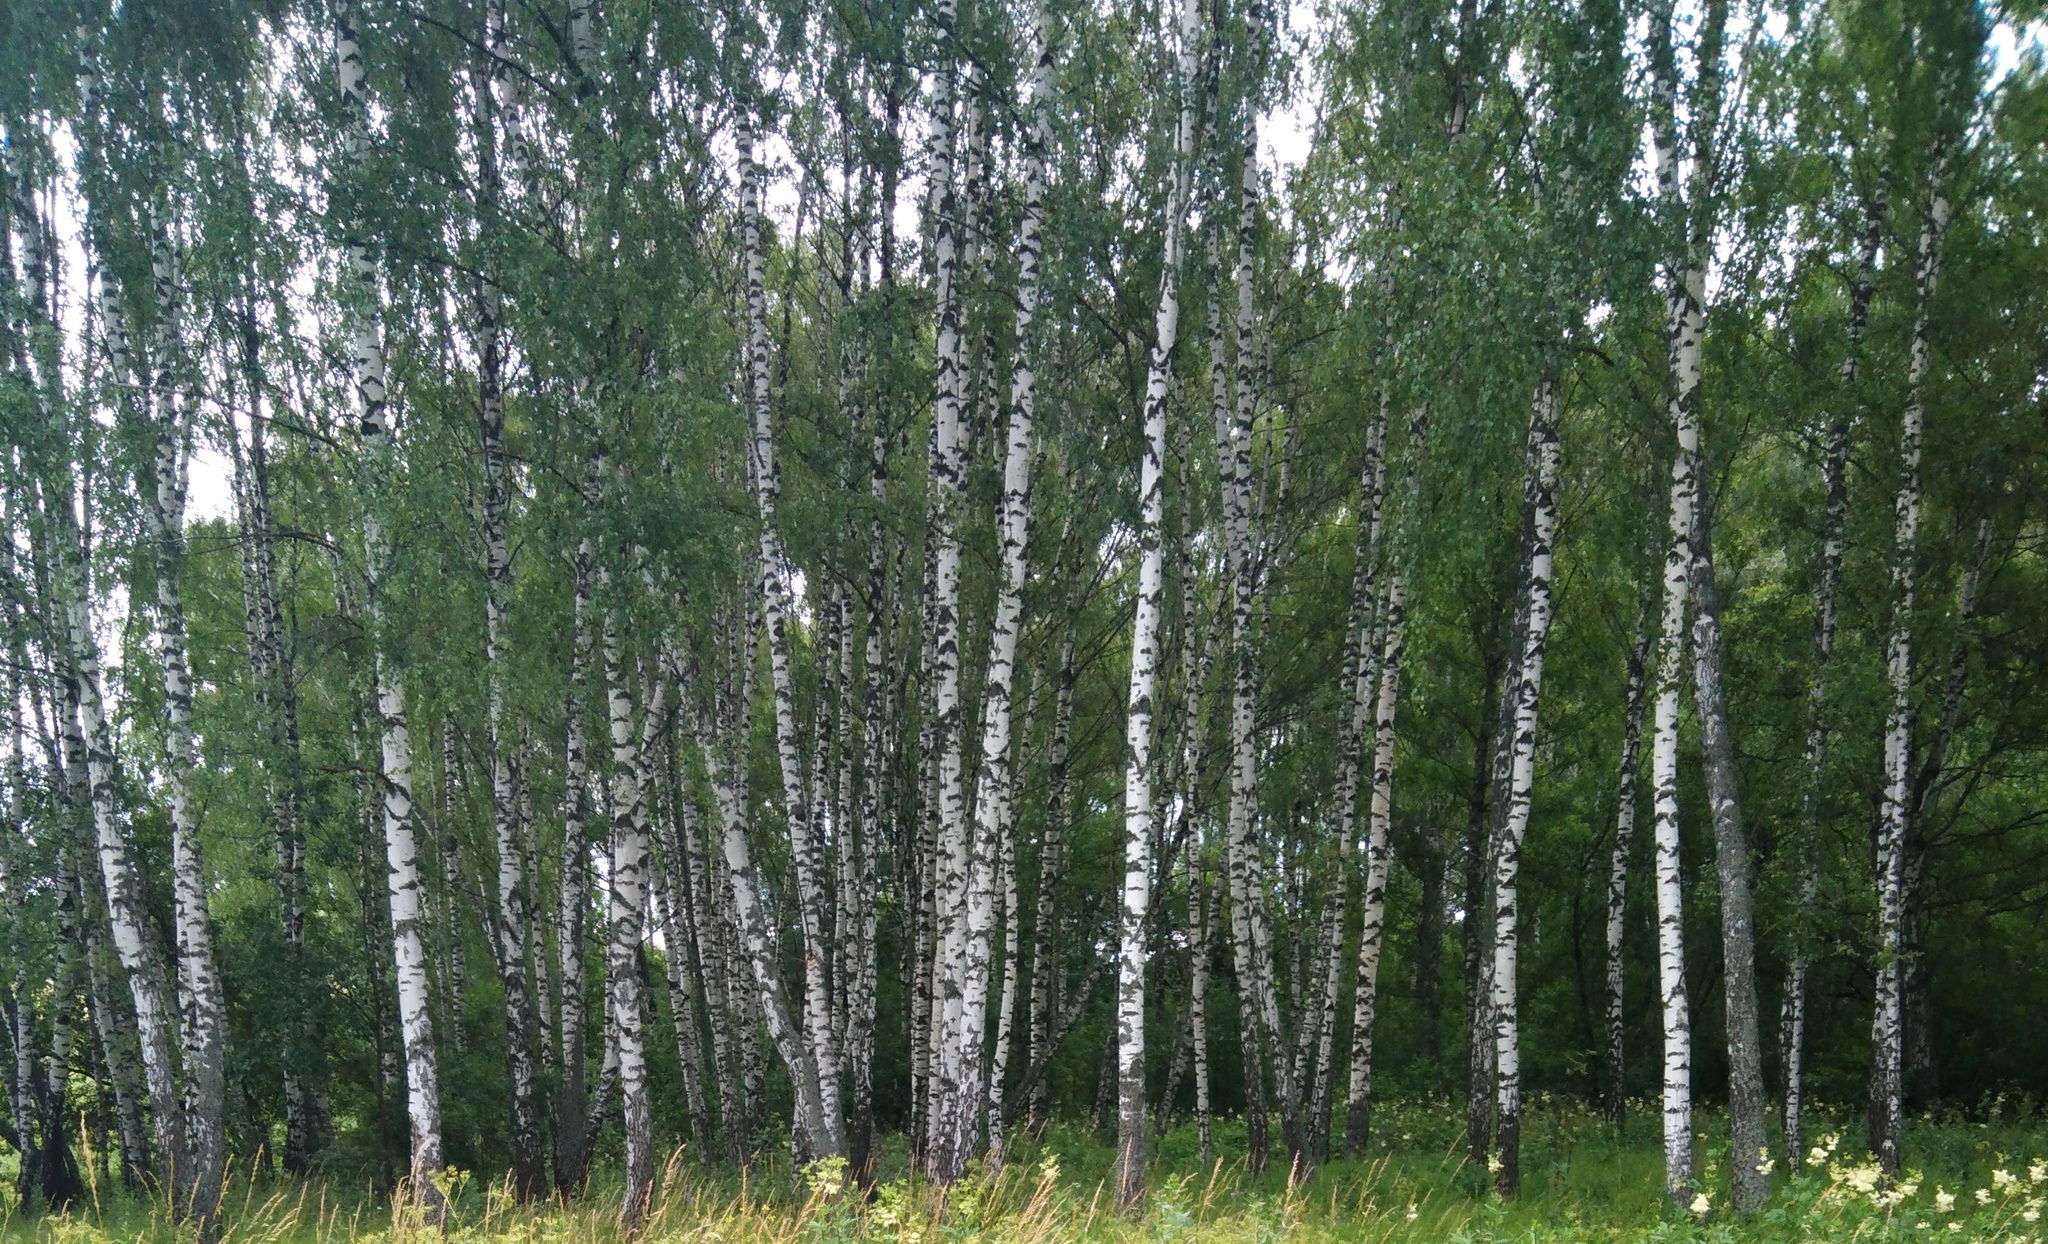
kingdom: Plantae
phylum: Tracheophyta
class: Magnoliopsida
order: Fagales
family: Betulaceae
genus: Betula
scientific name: Betula pendula
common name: Silver birch
